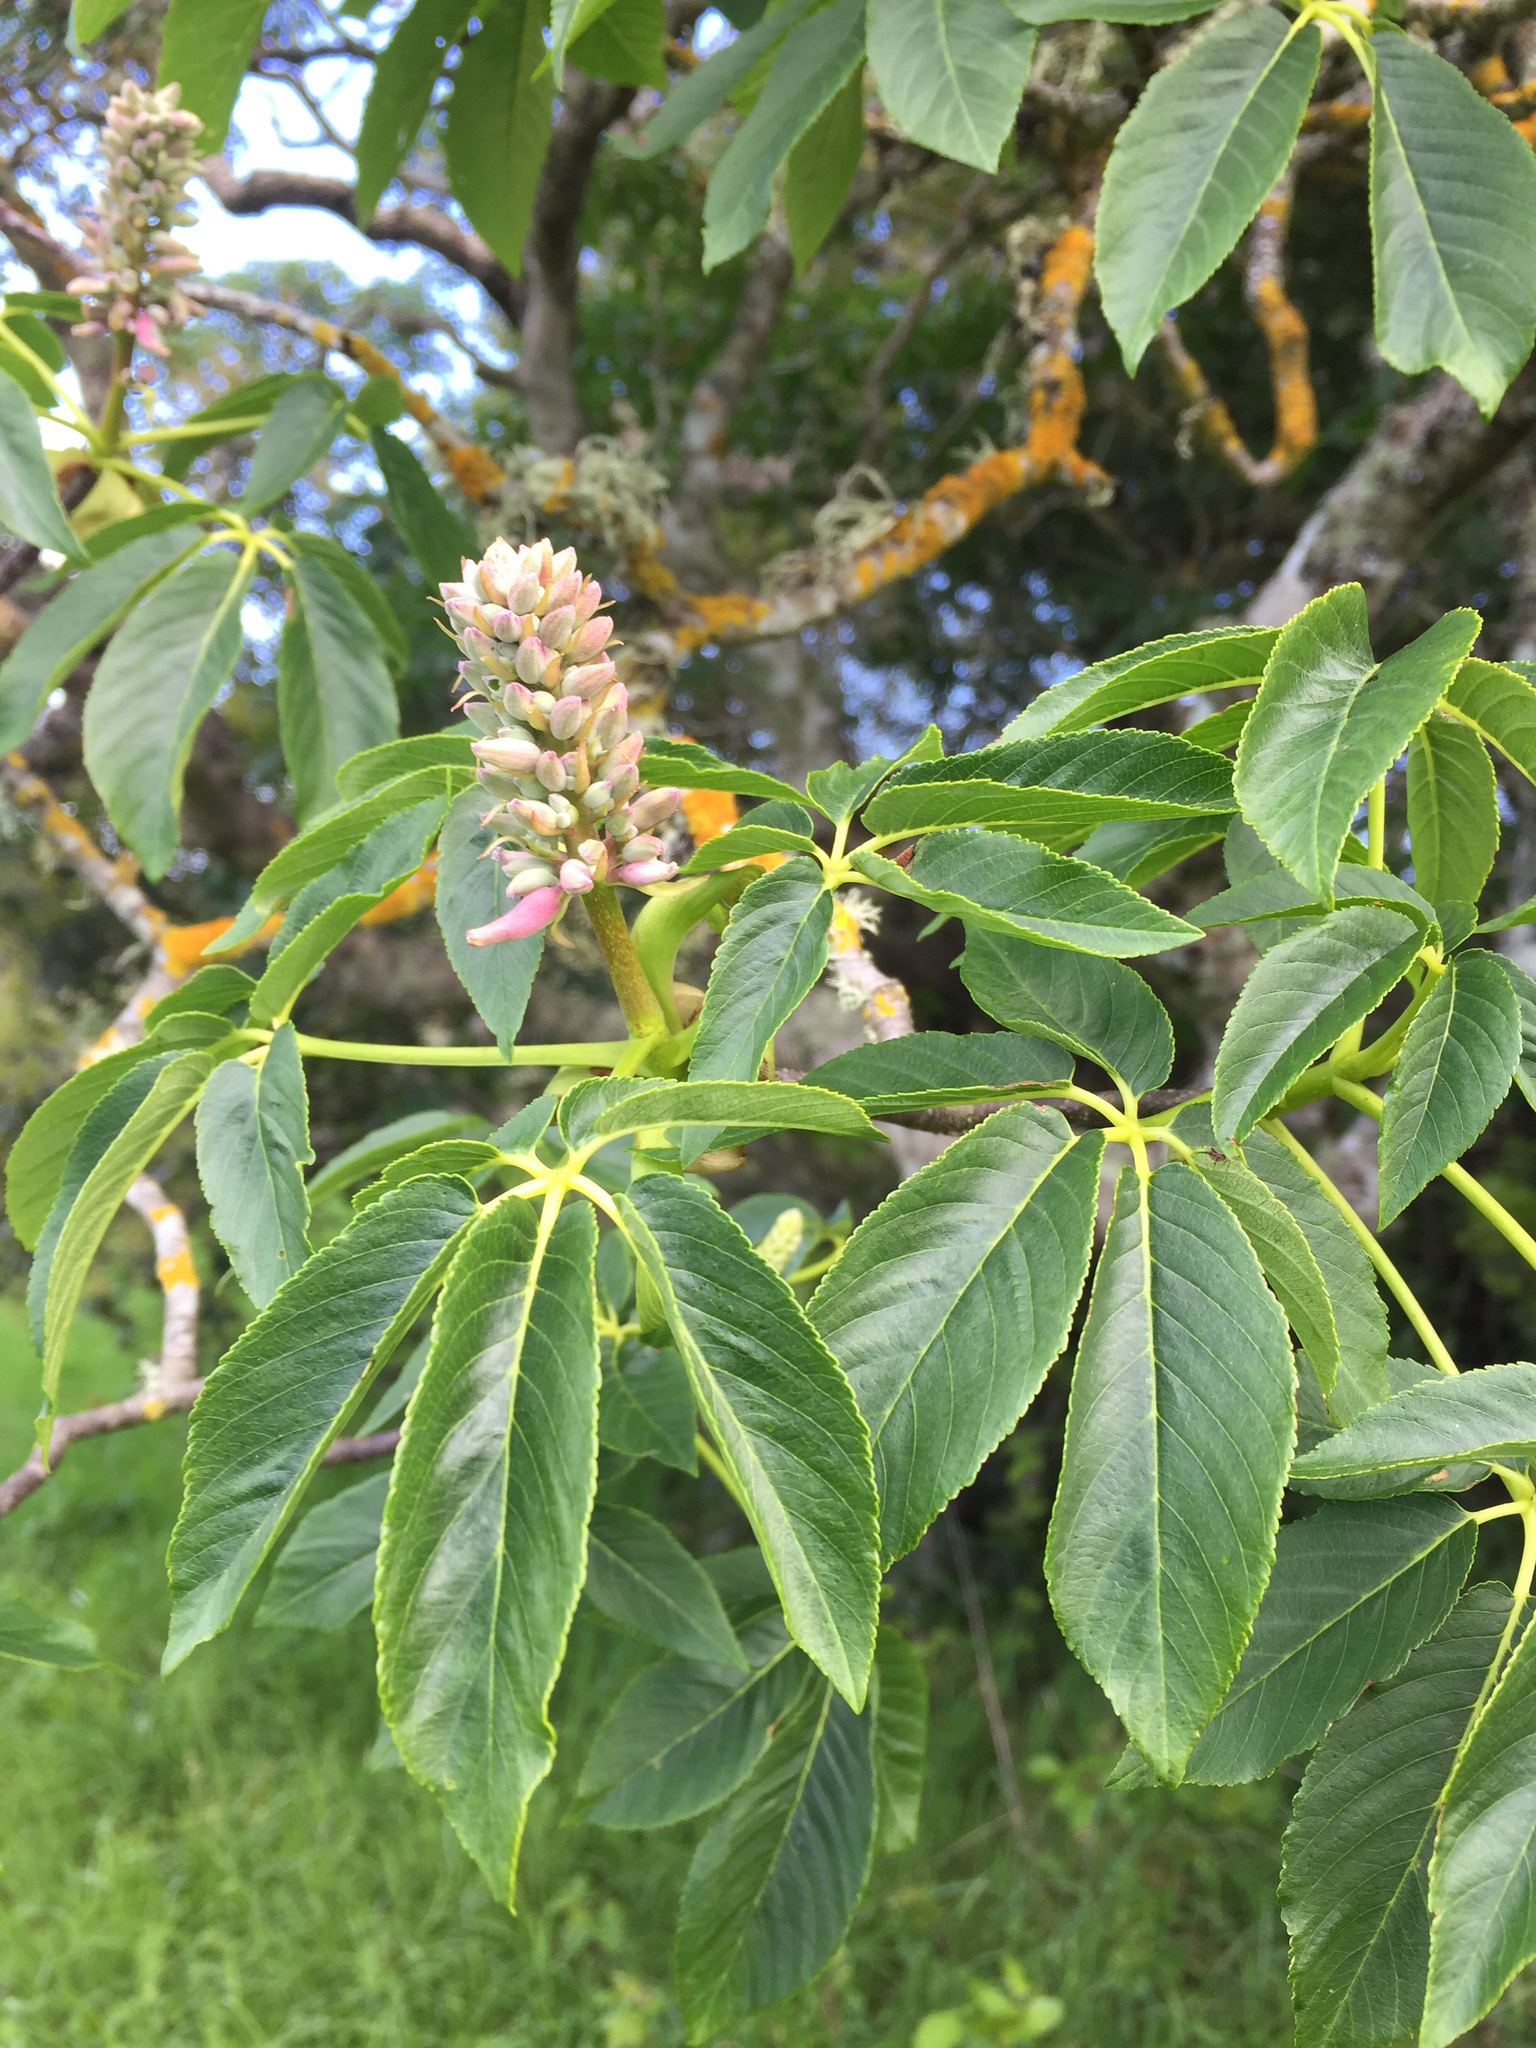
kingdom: Plantae
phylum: Tracheophyta
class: Magnoliopsida
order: Sapindales
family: Sapindaceae
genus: Aesculus
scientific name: Aesculus californica
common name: California buckeye
